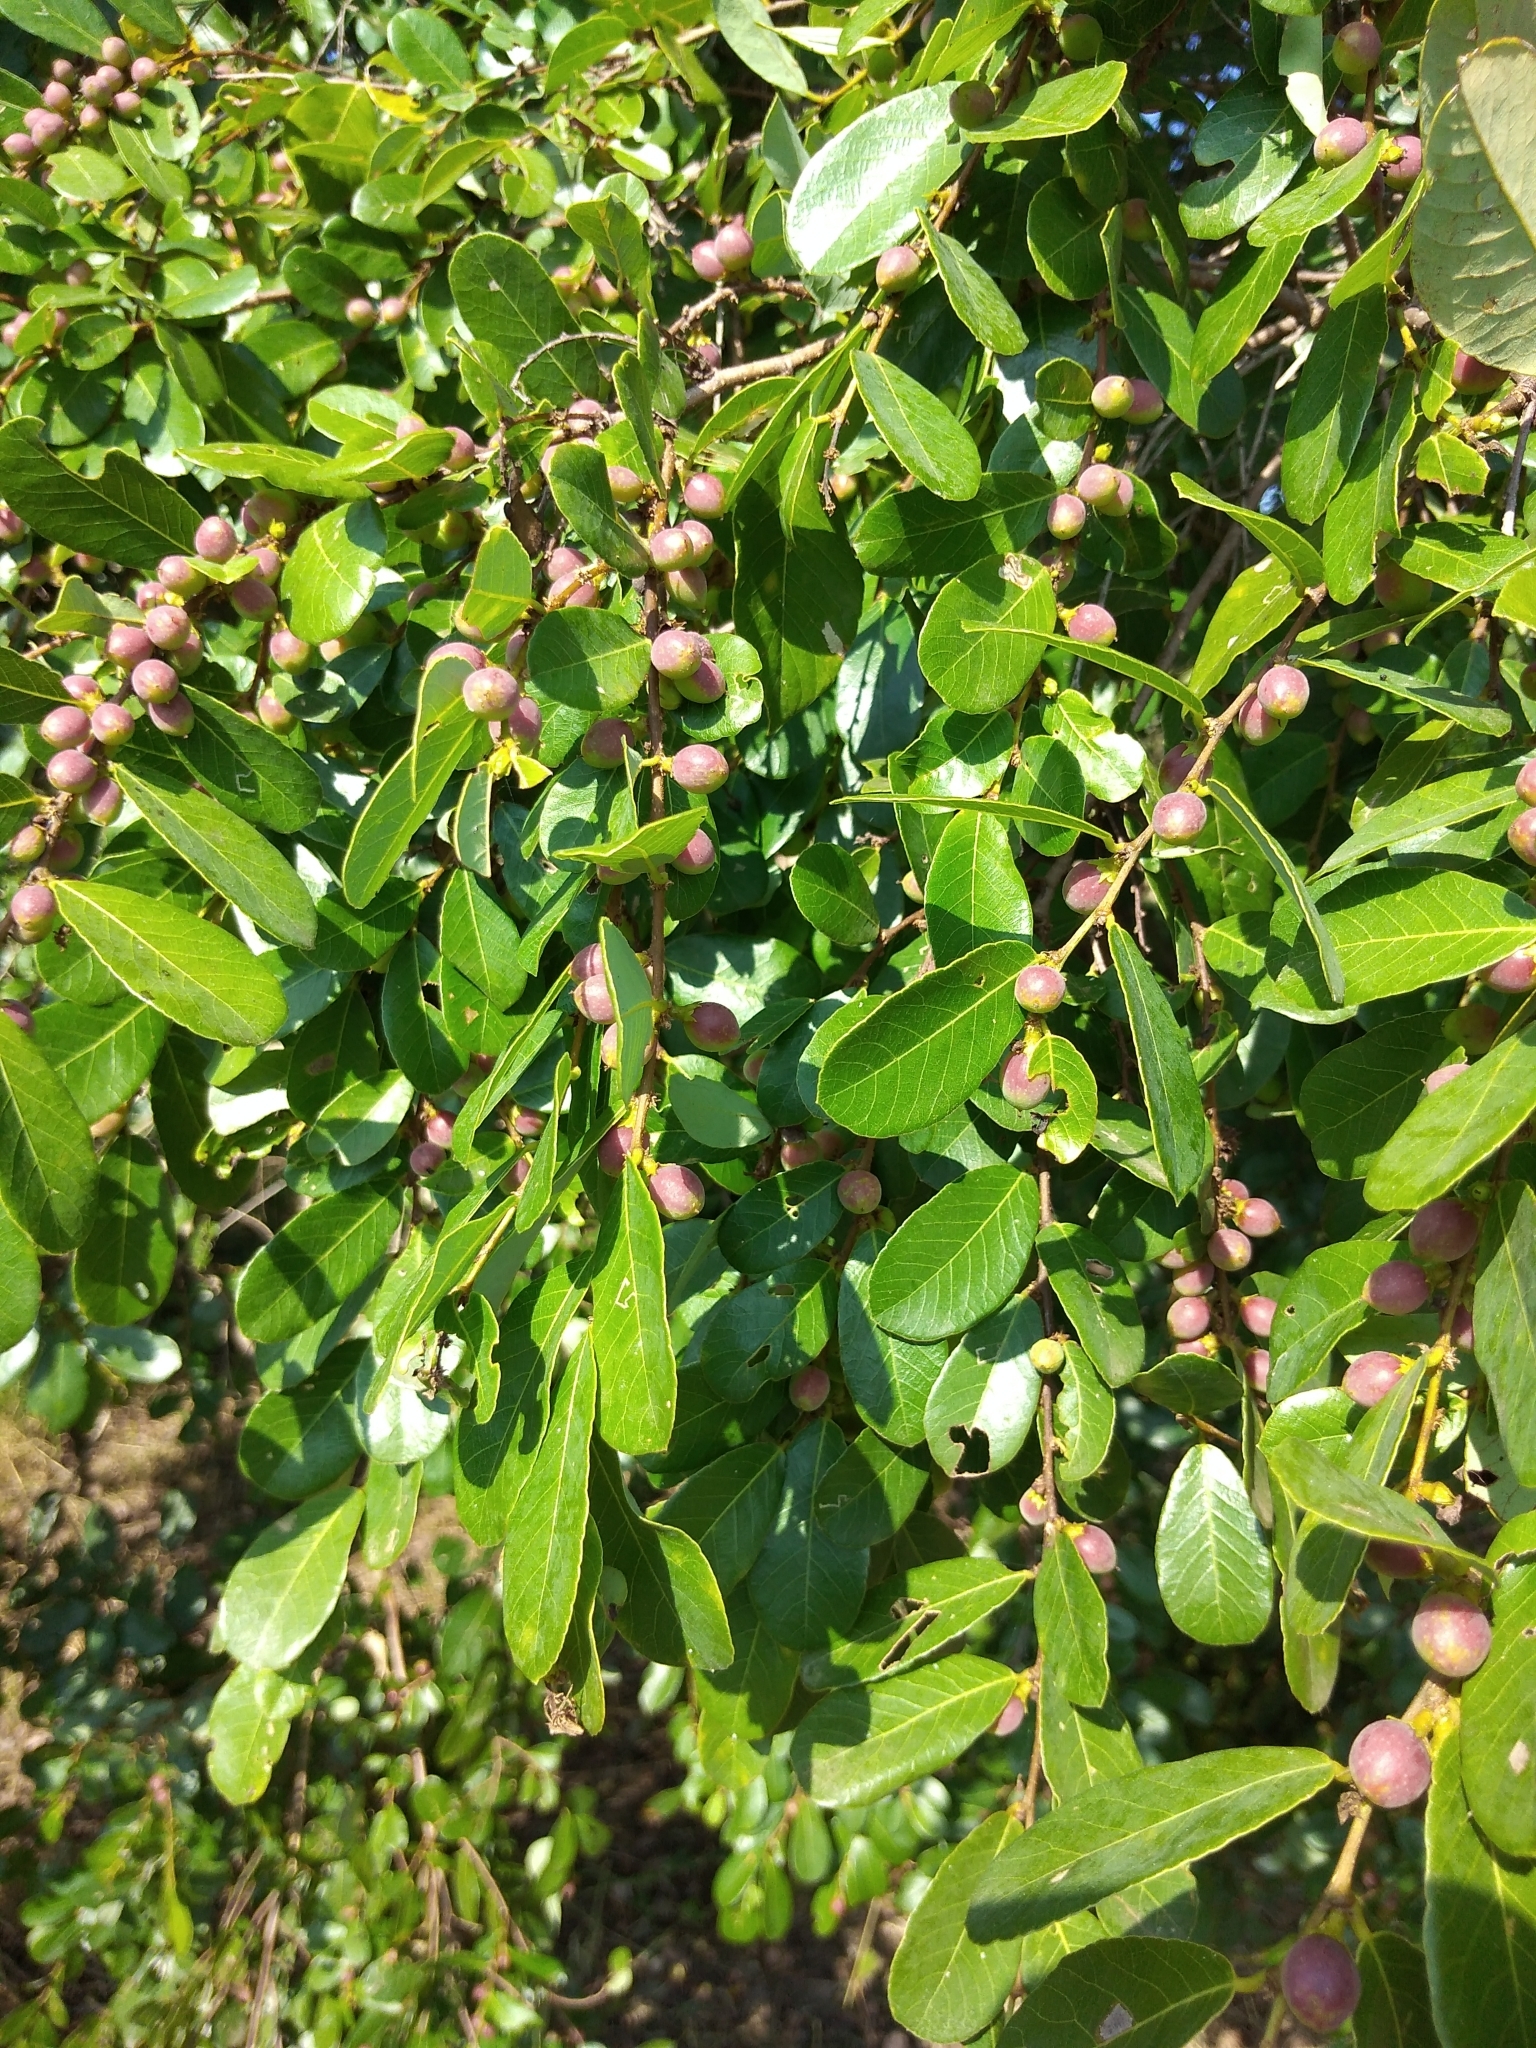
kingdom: Plantae
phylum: Tracheophyta
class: Magnoliopsida
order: Malpighiales
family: Phyllanthaceae
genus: Bridelia
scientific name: Bridelia cathartica
